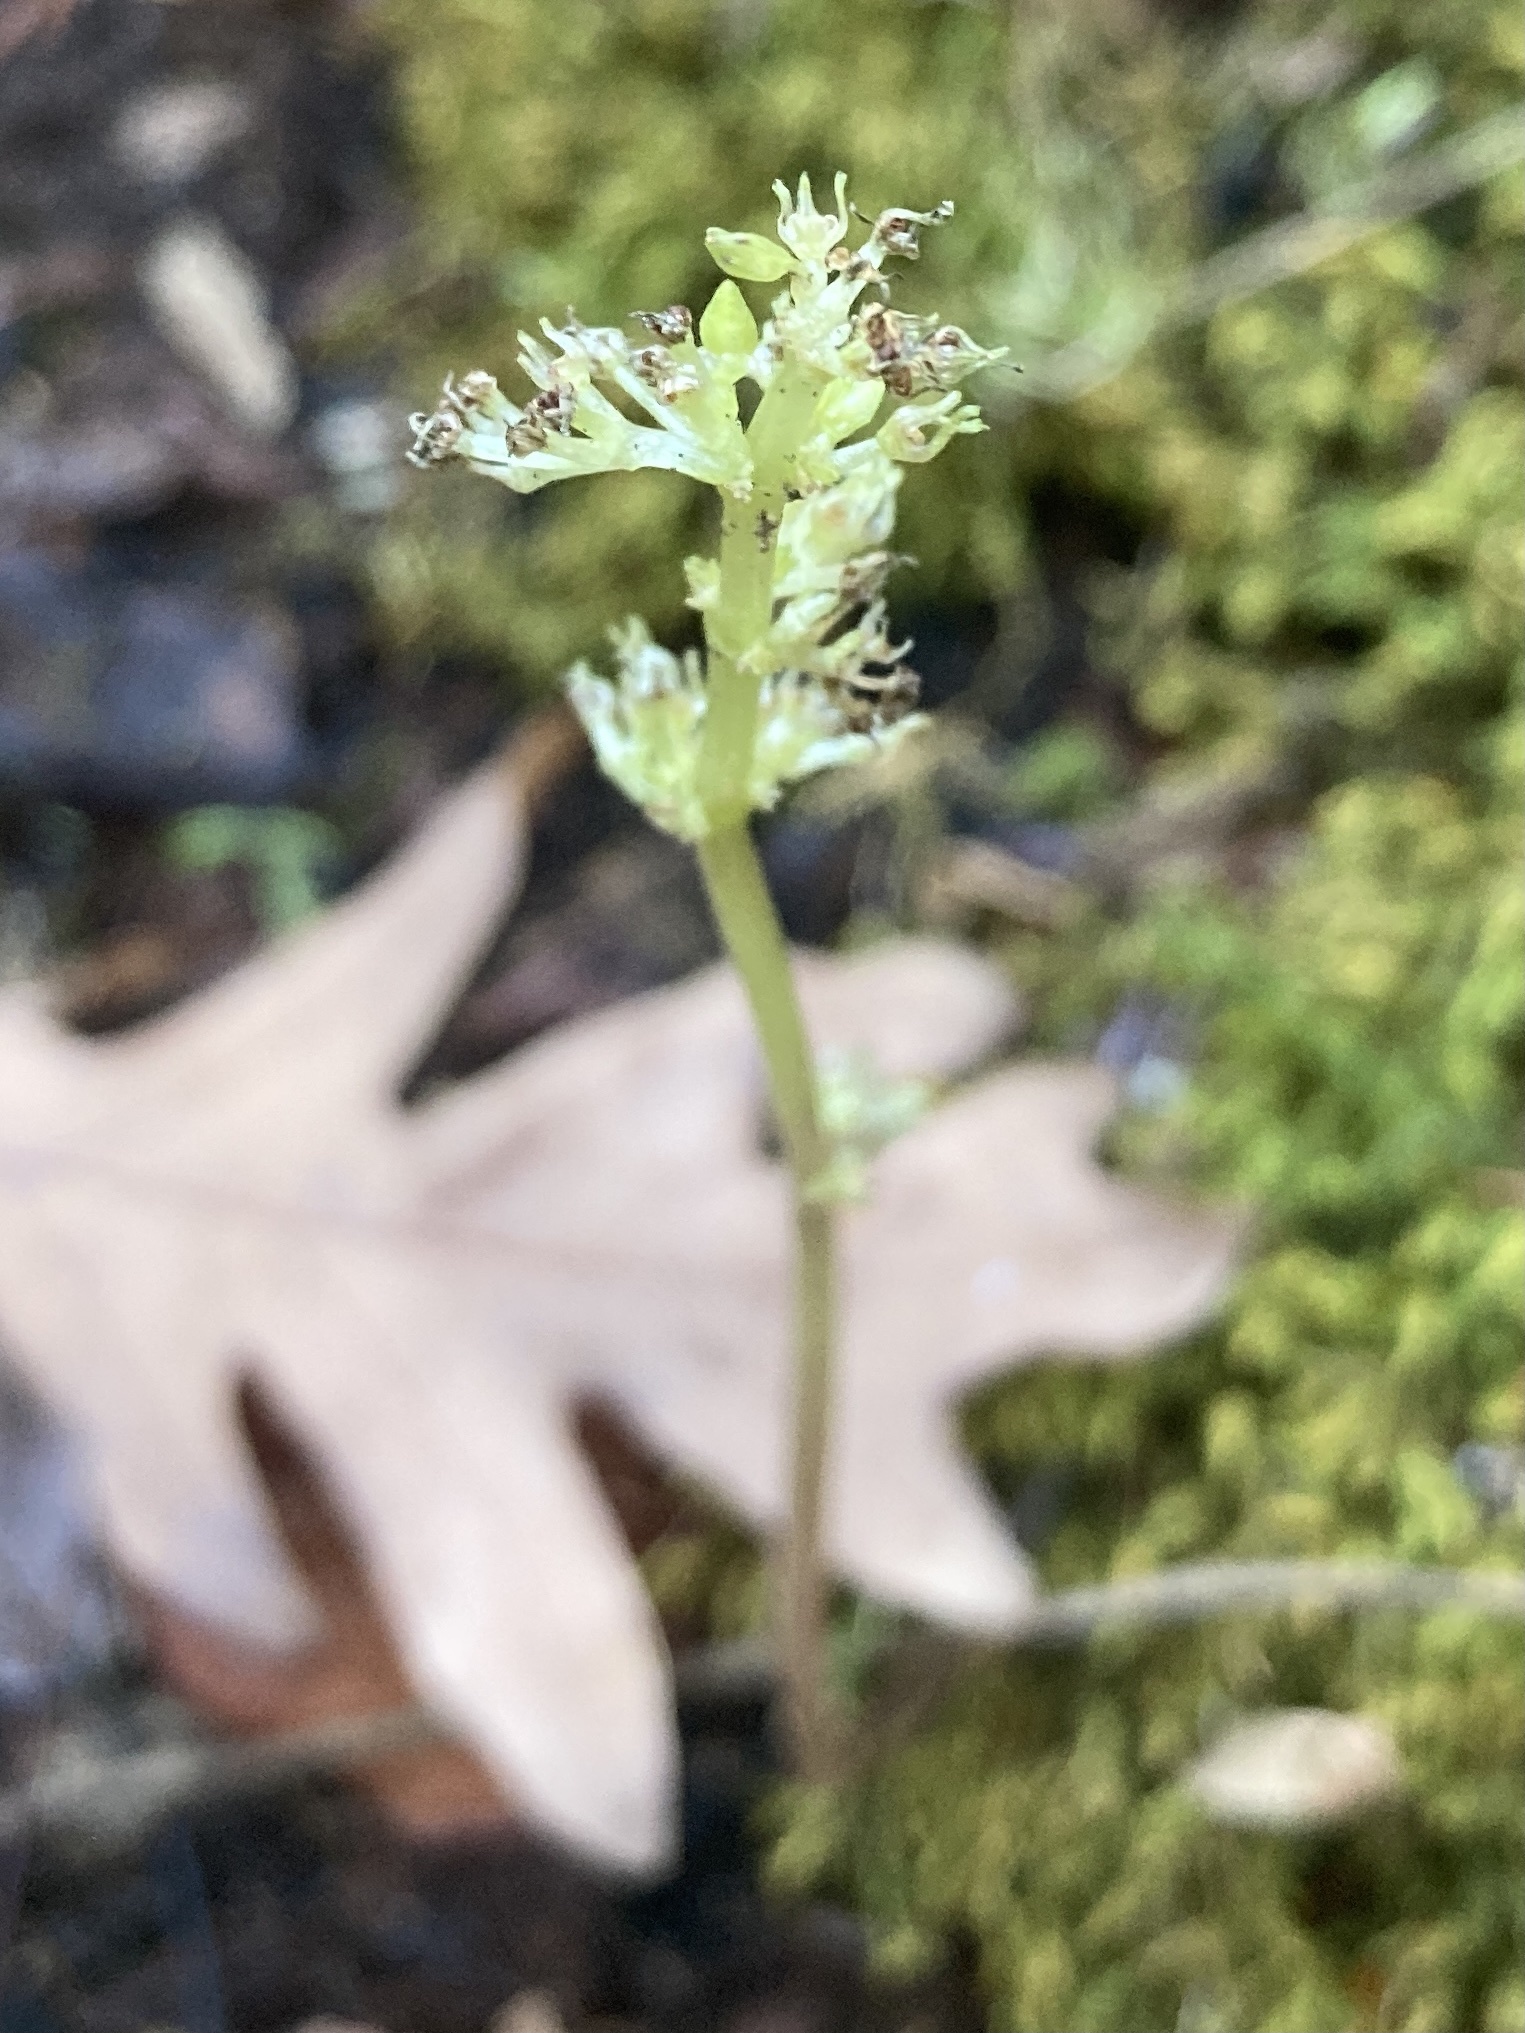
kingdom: Plantae
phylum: Tracheophyta
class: Magnoliopsida
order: Rosales
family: Urticaceae
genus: Pilea
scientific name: Pilea pumila
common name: Clearweed
